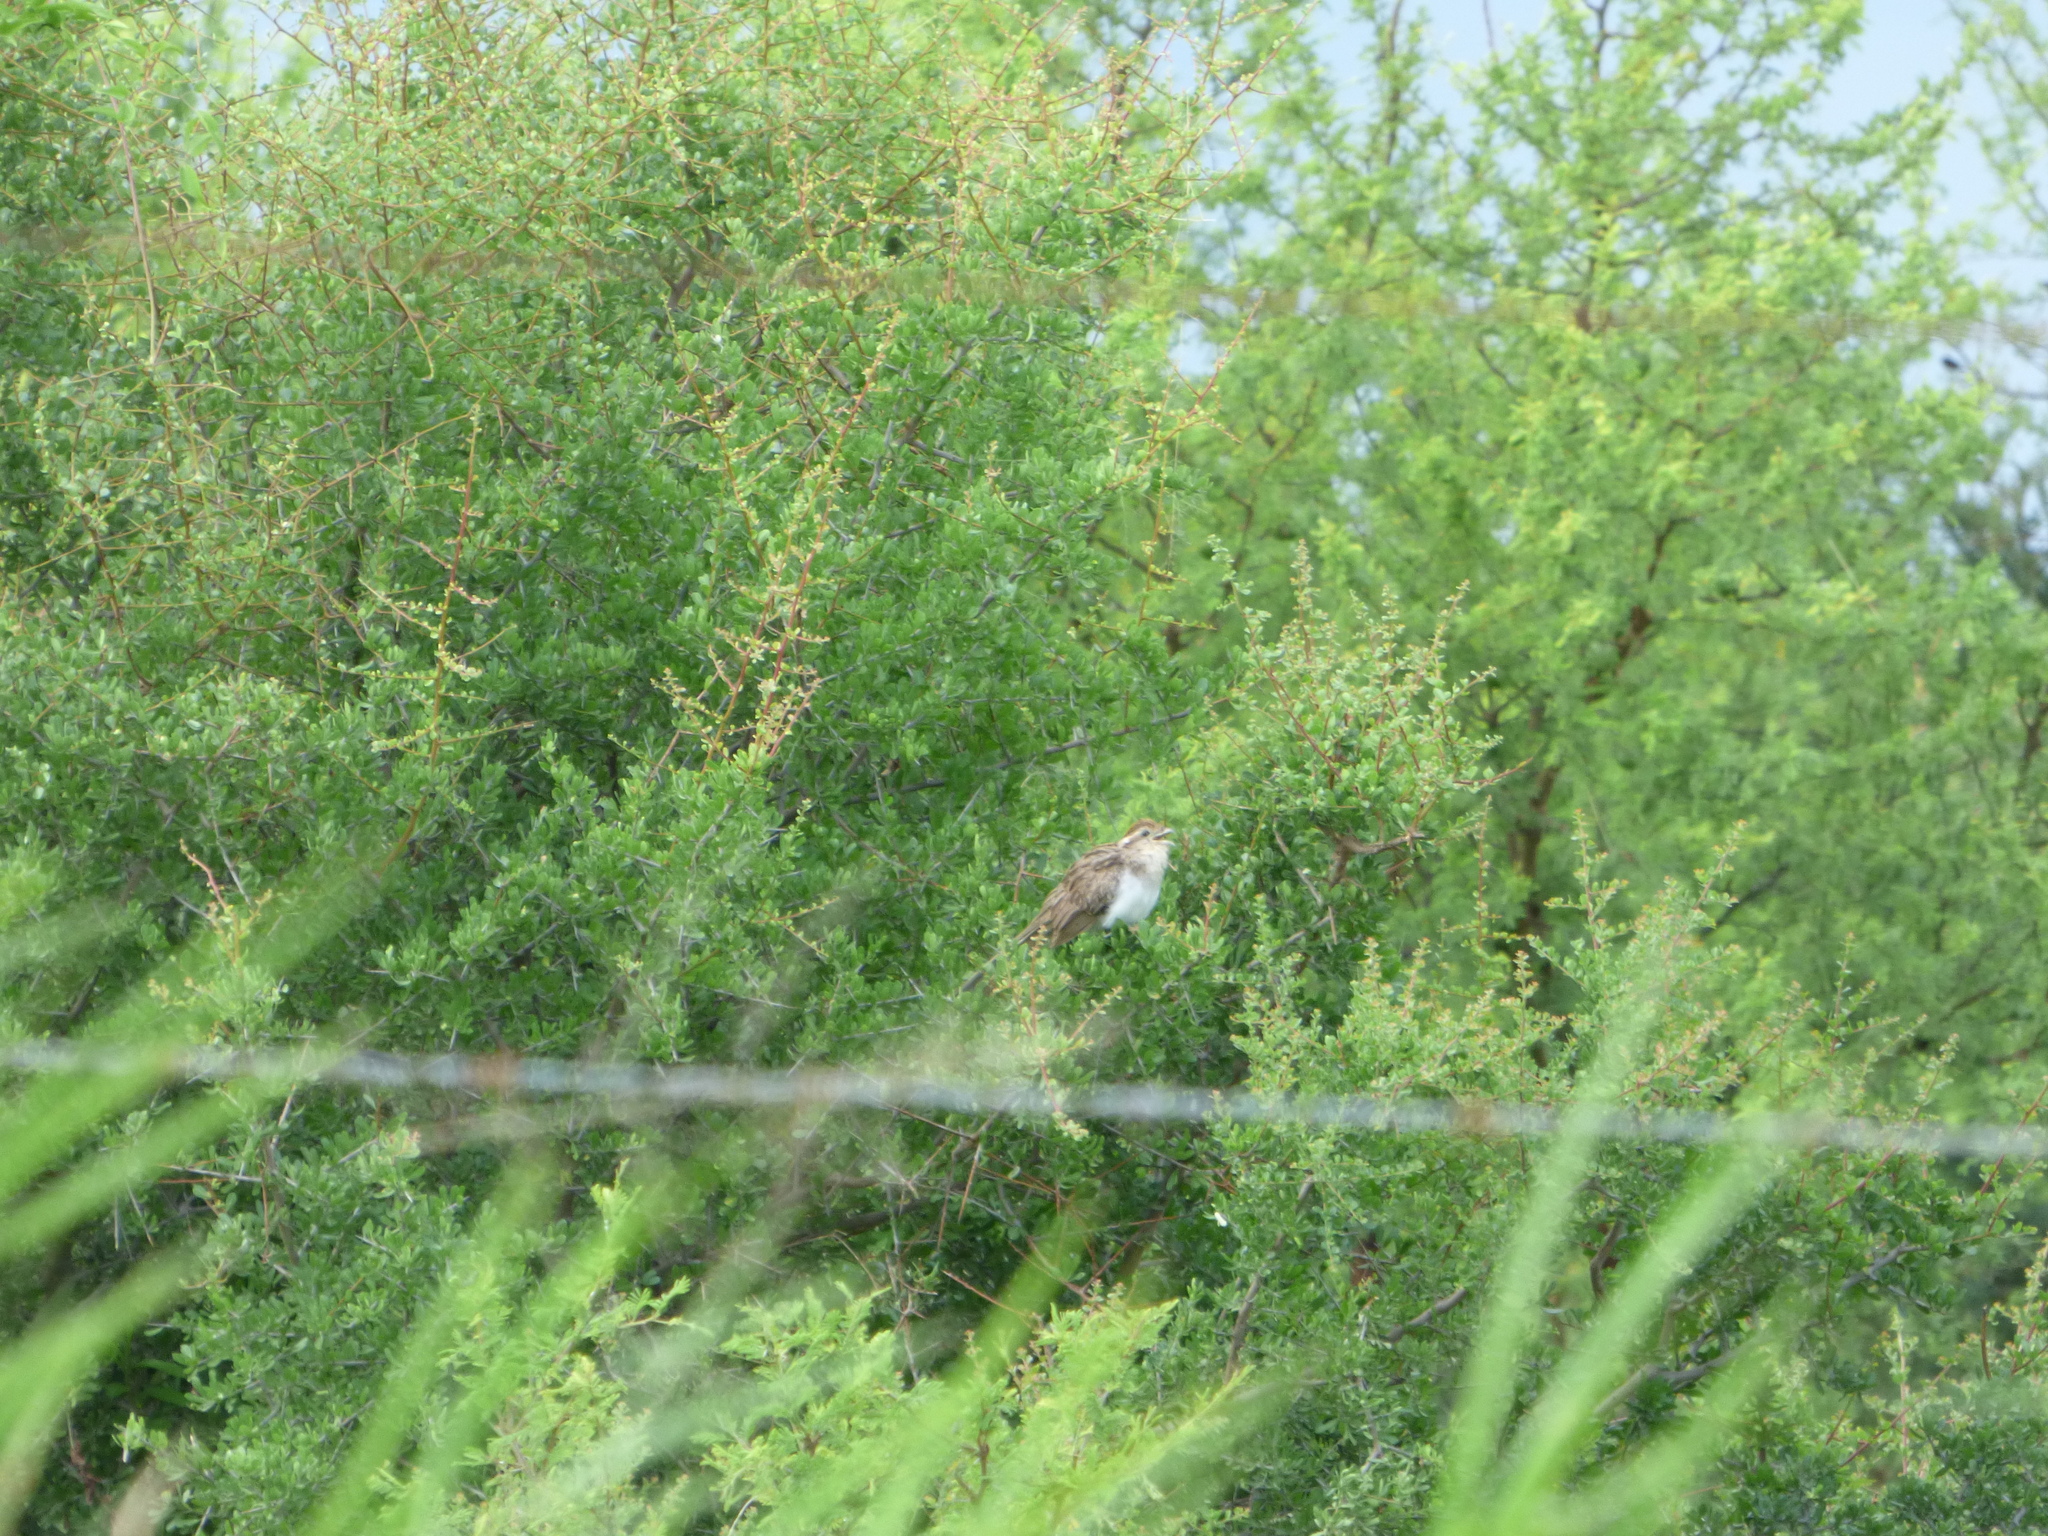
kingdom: Animalia
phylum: Chordata
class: Aves
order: Cuculiformes
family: Cuculidae
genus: Tapera
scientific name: Tapera naevia
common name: Striped cuckoo
